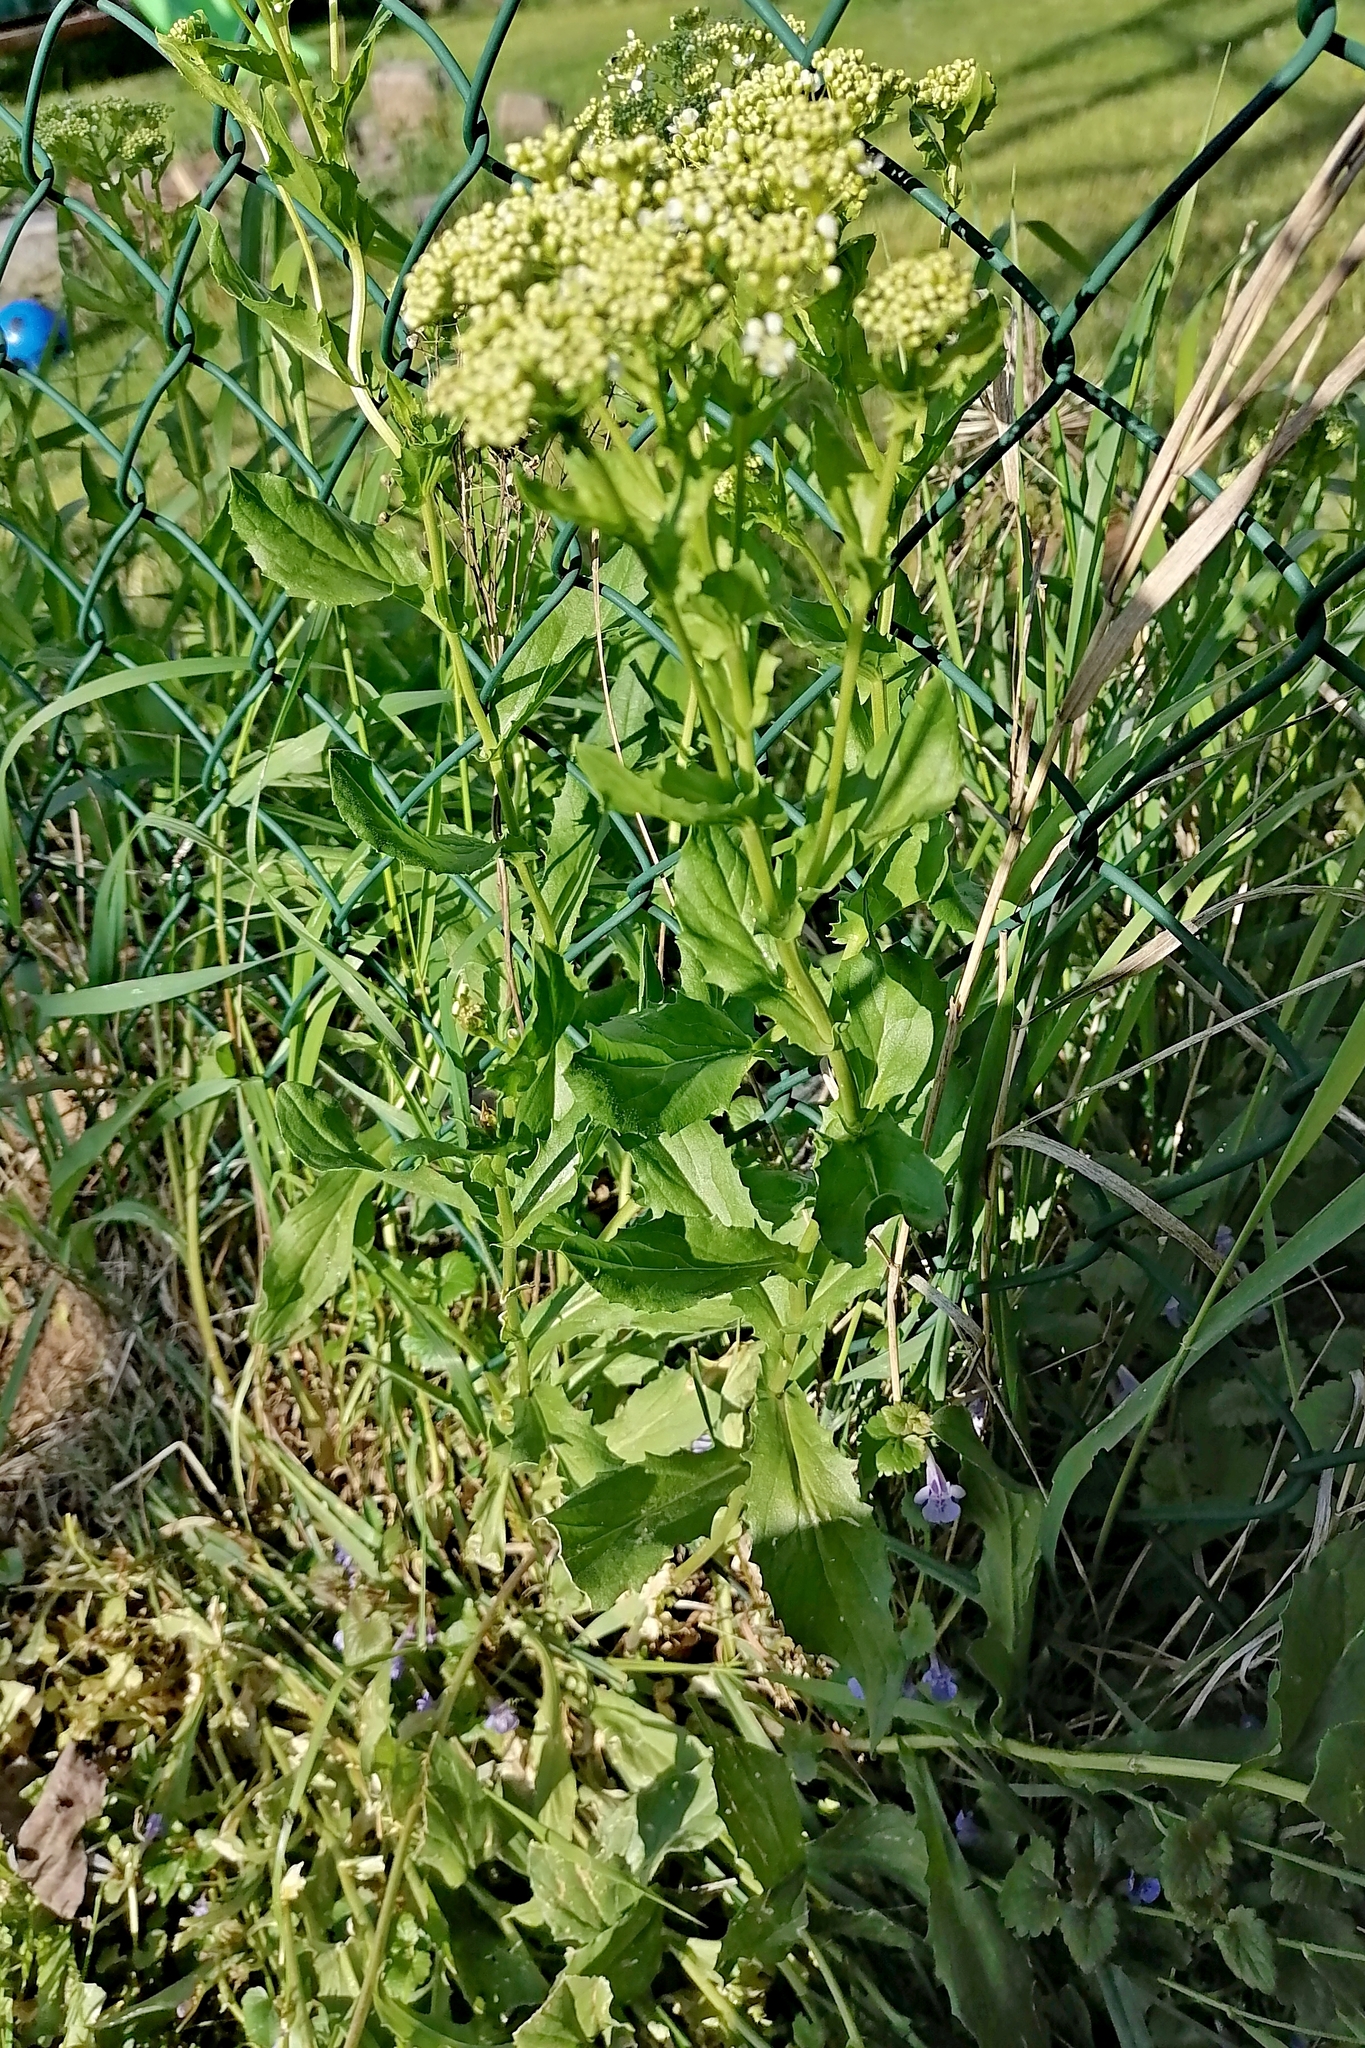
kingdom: Plantae
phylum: Tracheophyta
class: Magnoliopsida
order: Brassicales
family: Brassicaceae
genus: Lepidium
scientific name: Lepidium draba
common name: Hoary cress
